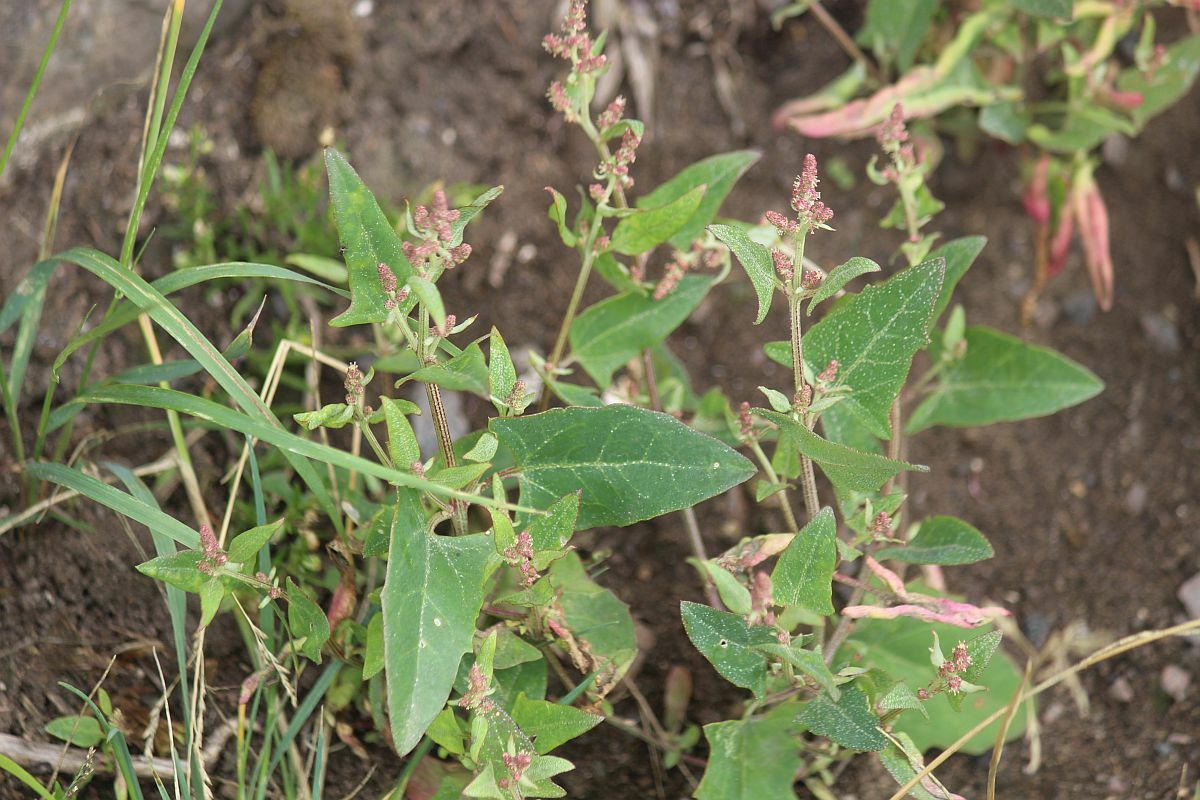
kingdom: Plantae
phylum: Tracheophyta
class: Magnoliopsida
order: Caryophyllales
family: Amaranthaceae
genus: Atriplex
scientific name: Atriplex prostrata
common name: Spear-leaved orache
